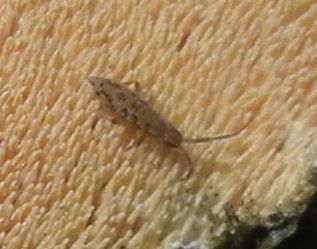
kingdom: Animalia
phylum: Arthropoda
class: Collembola
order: Entomobryomorpha
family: Entomobryidae
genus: Entomobrya
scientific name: Entomobrya intermedia
